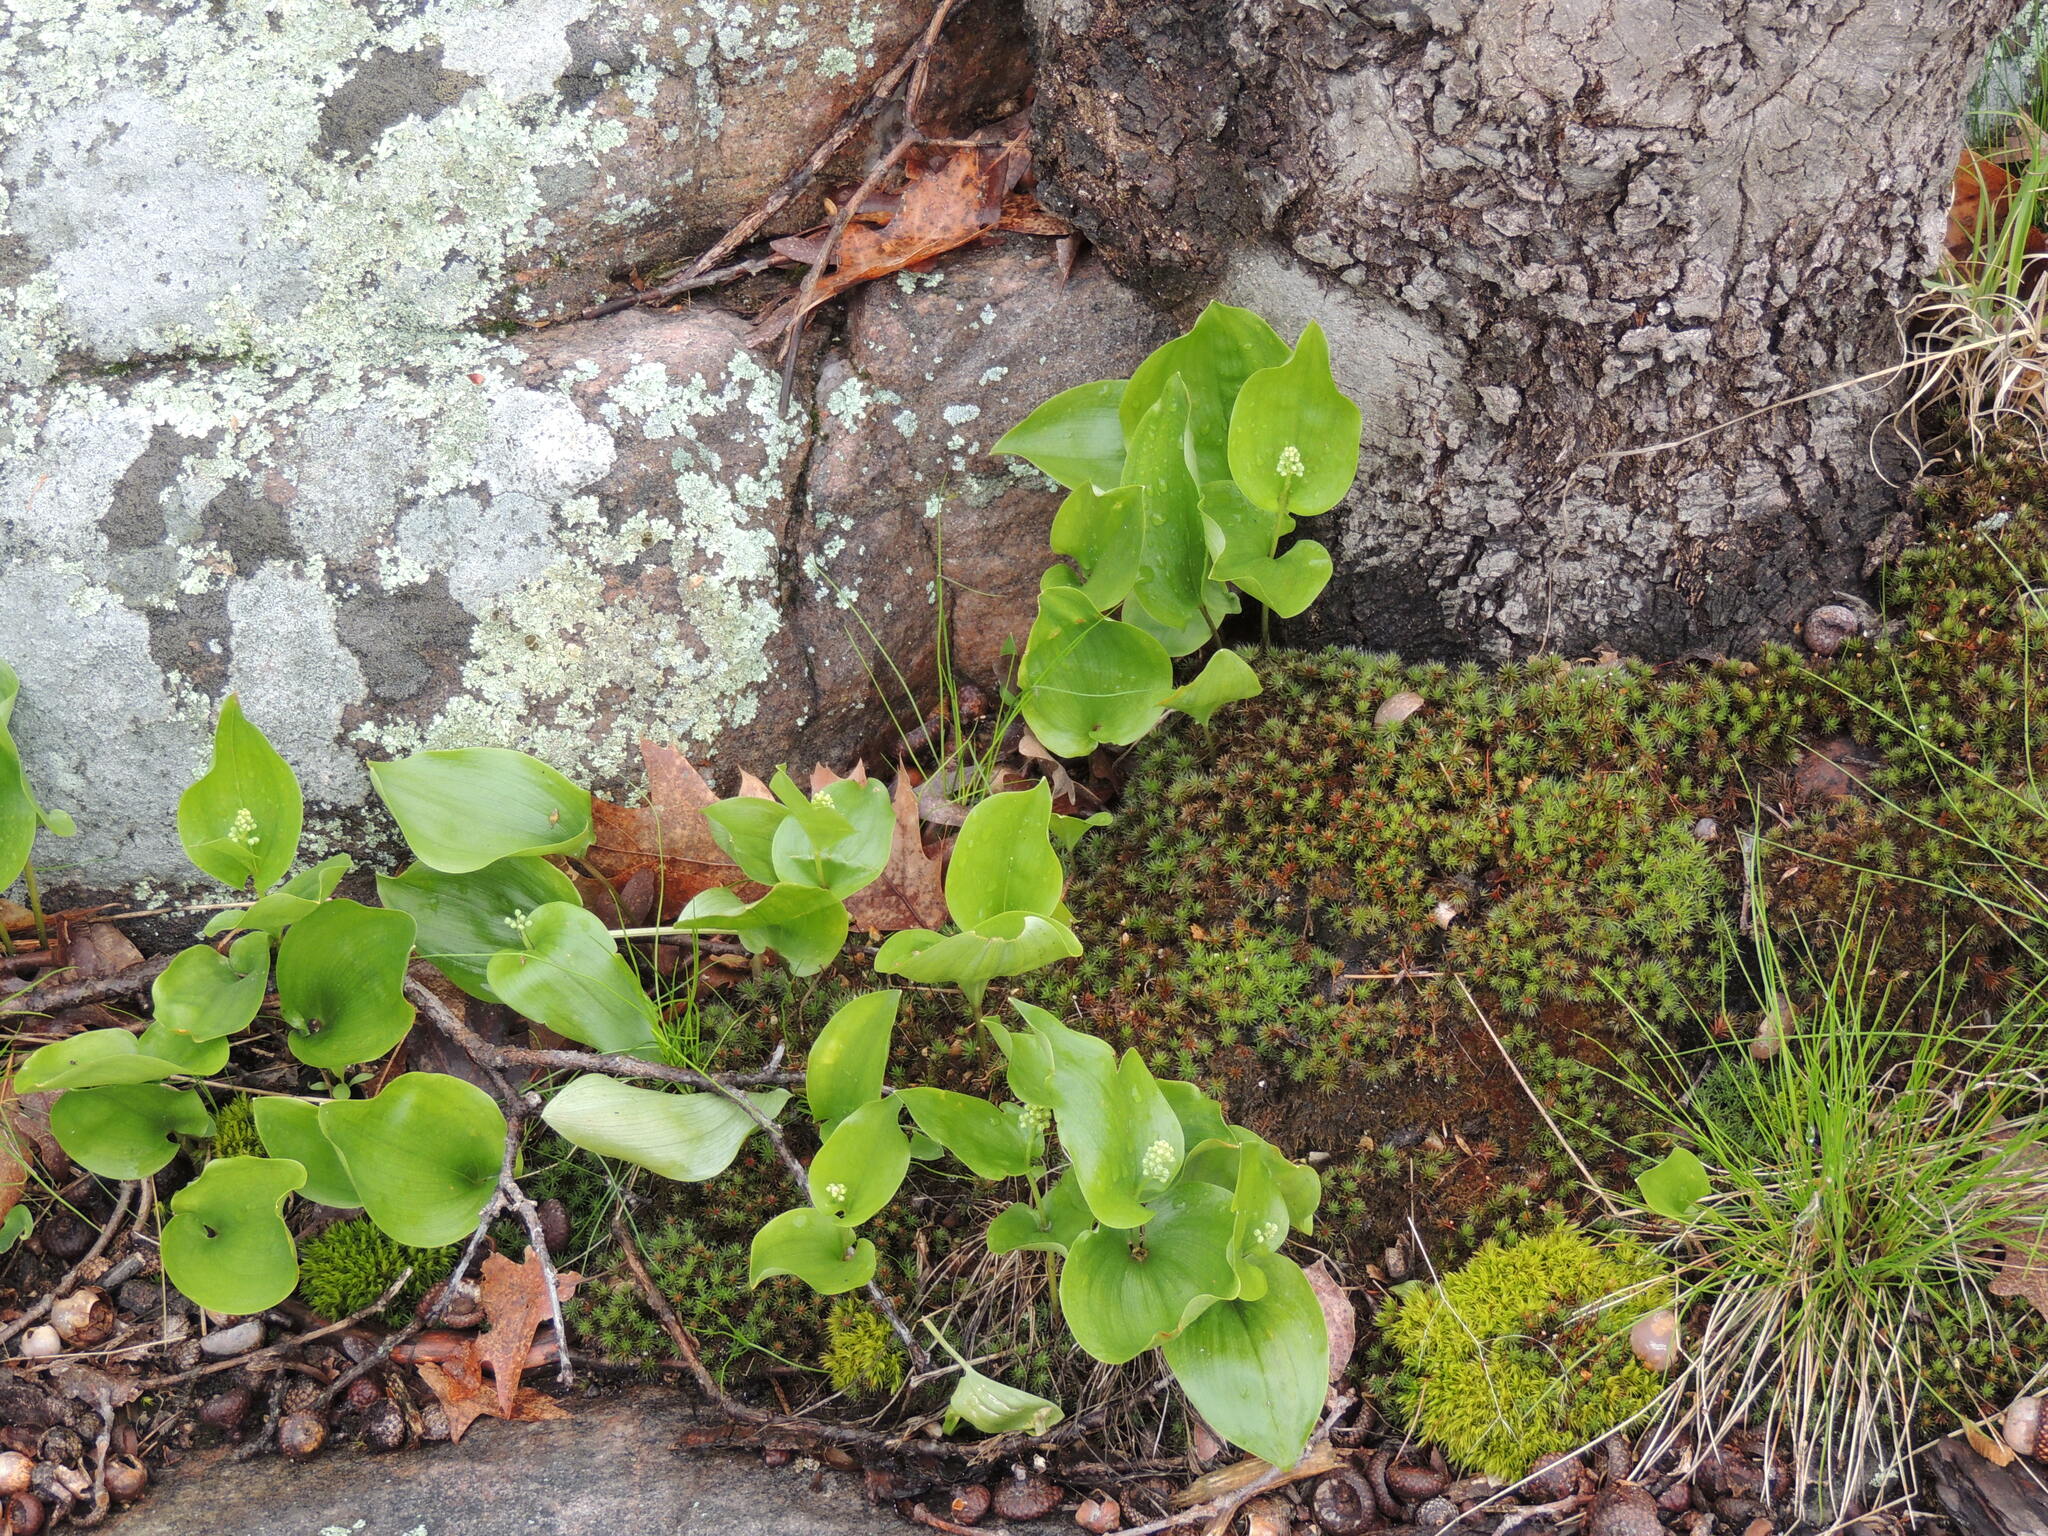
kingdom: Plantae
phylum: Tracheophyta
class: Liliopsida
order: Asparagales
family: Asparagaceae
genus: Maianthemum
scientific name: Maianthemum canadense
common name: False lily-of-the-valley
